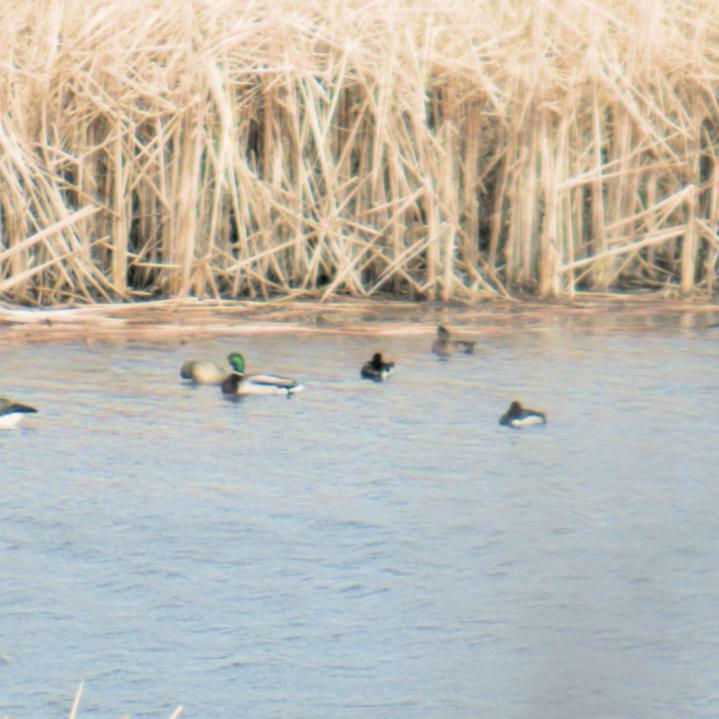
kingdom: Animalia
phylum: Chordata
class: Aves
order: Anseriformes
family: Anatidae
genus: Anas
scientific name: Anas platyrhynchos
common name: Mallard
